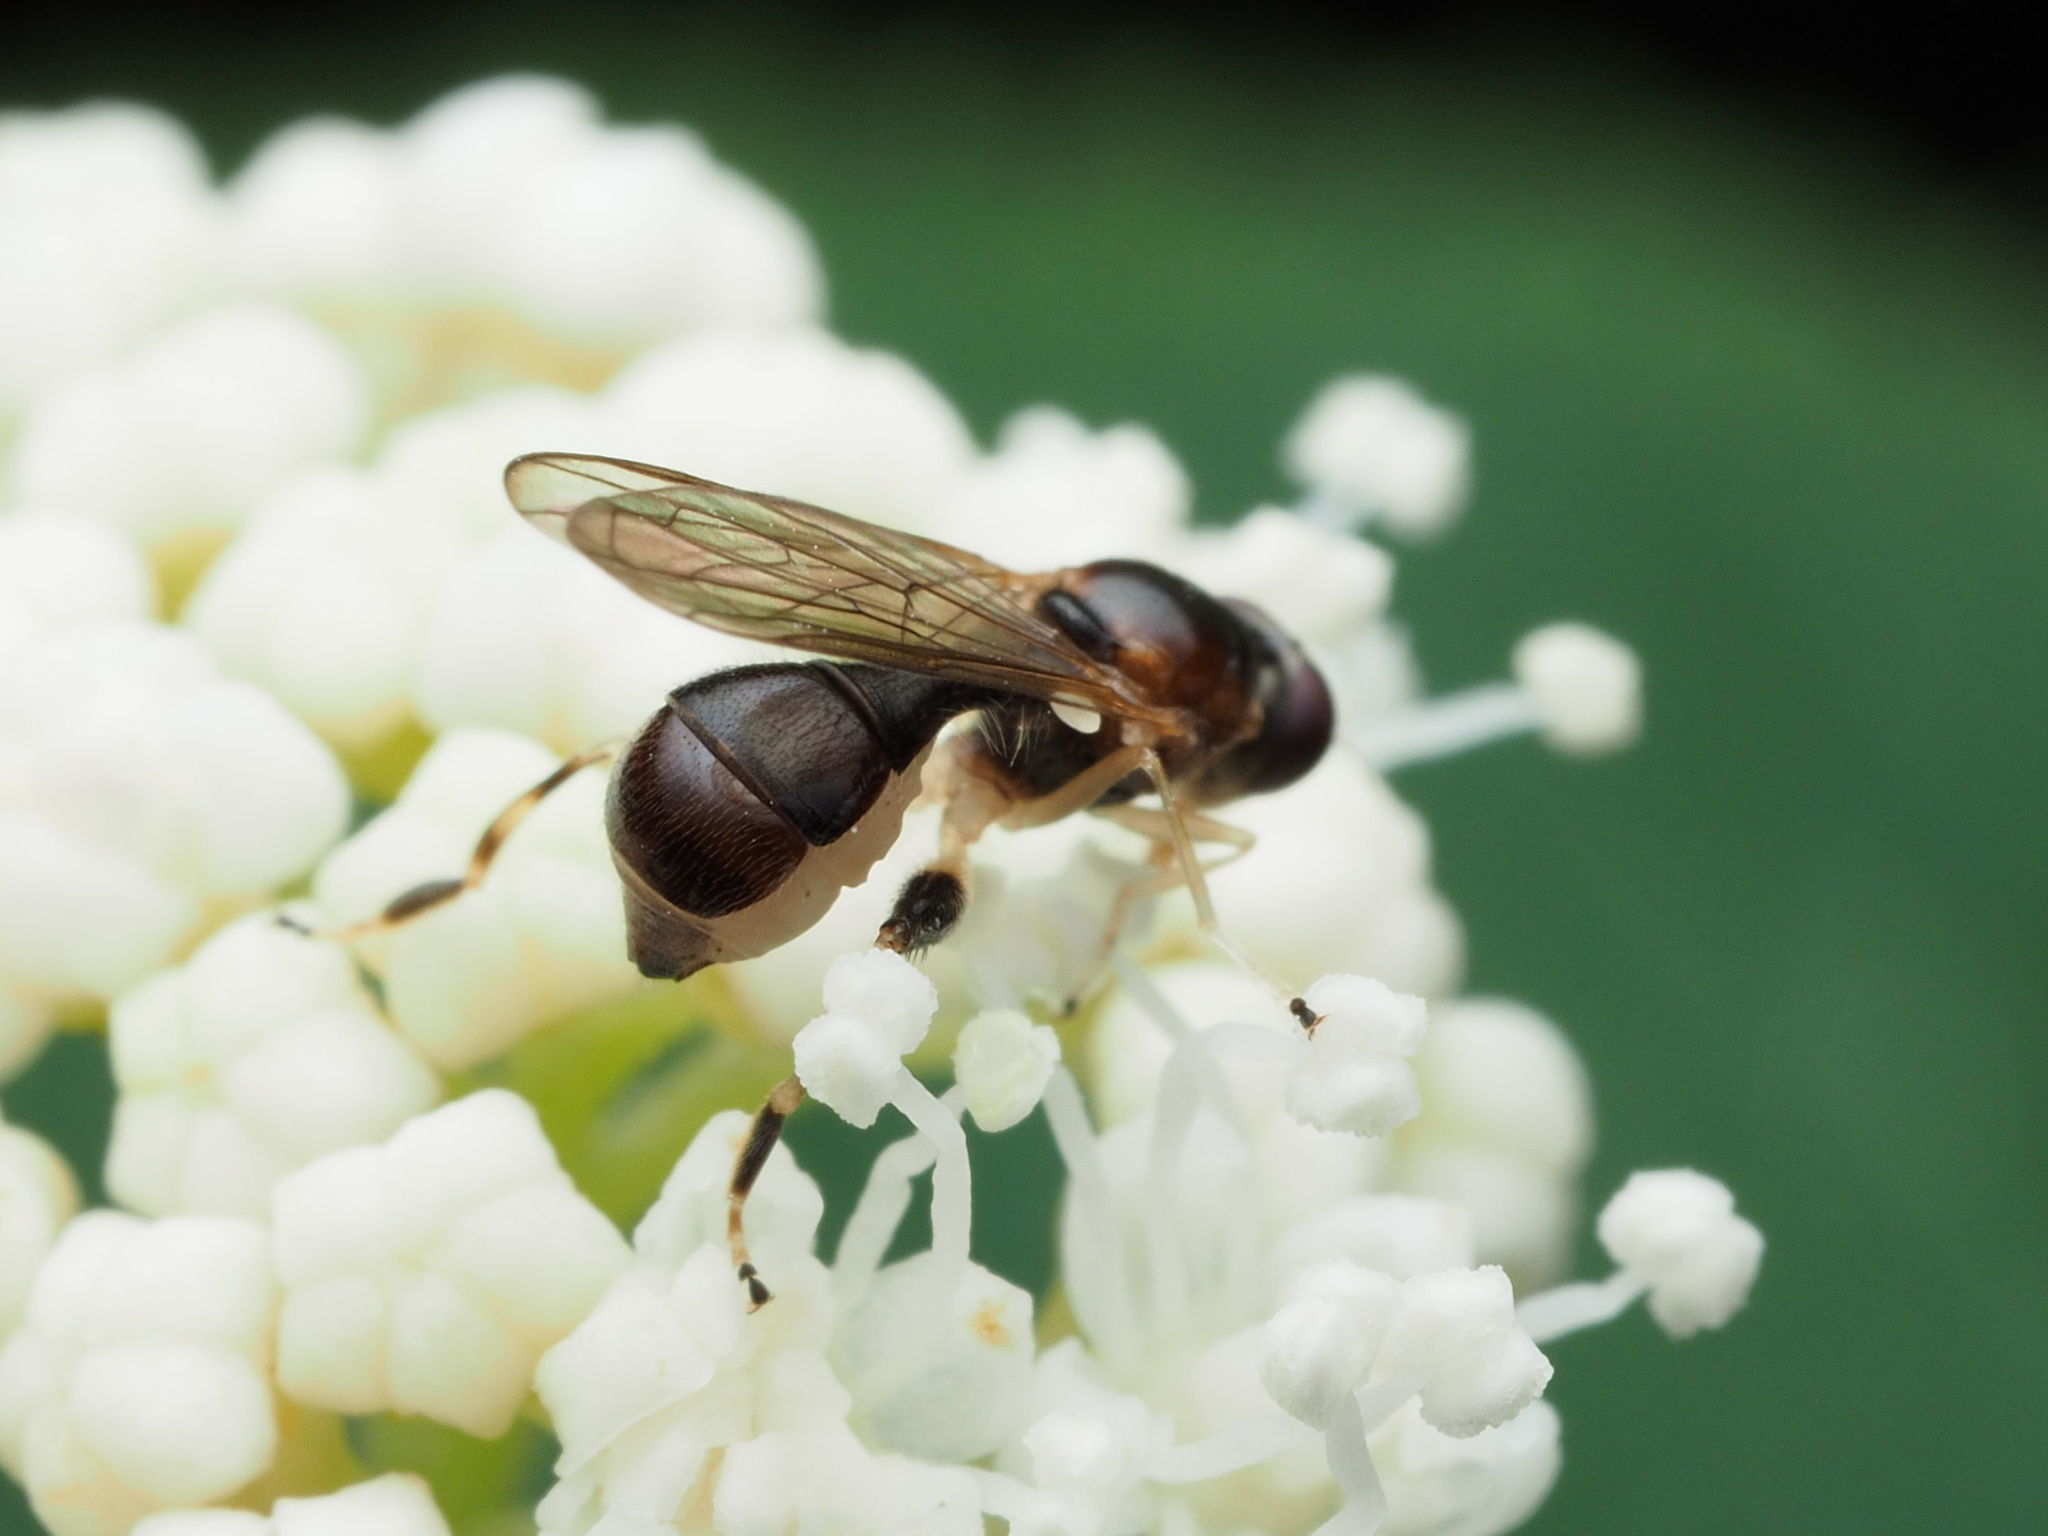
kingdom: Animalia
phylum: Arthropoda
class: Insecta
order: Diptera
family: Syrphidae
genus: Sphegina
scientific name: Sphegina keeniana
